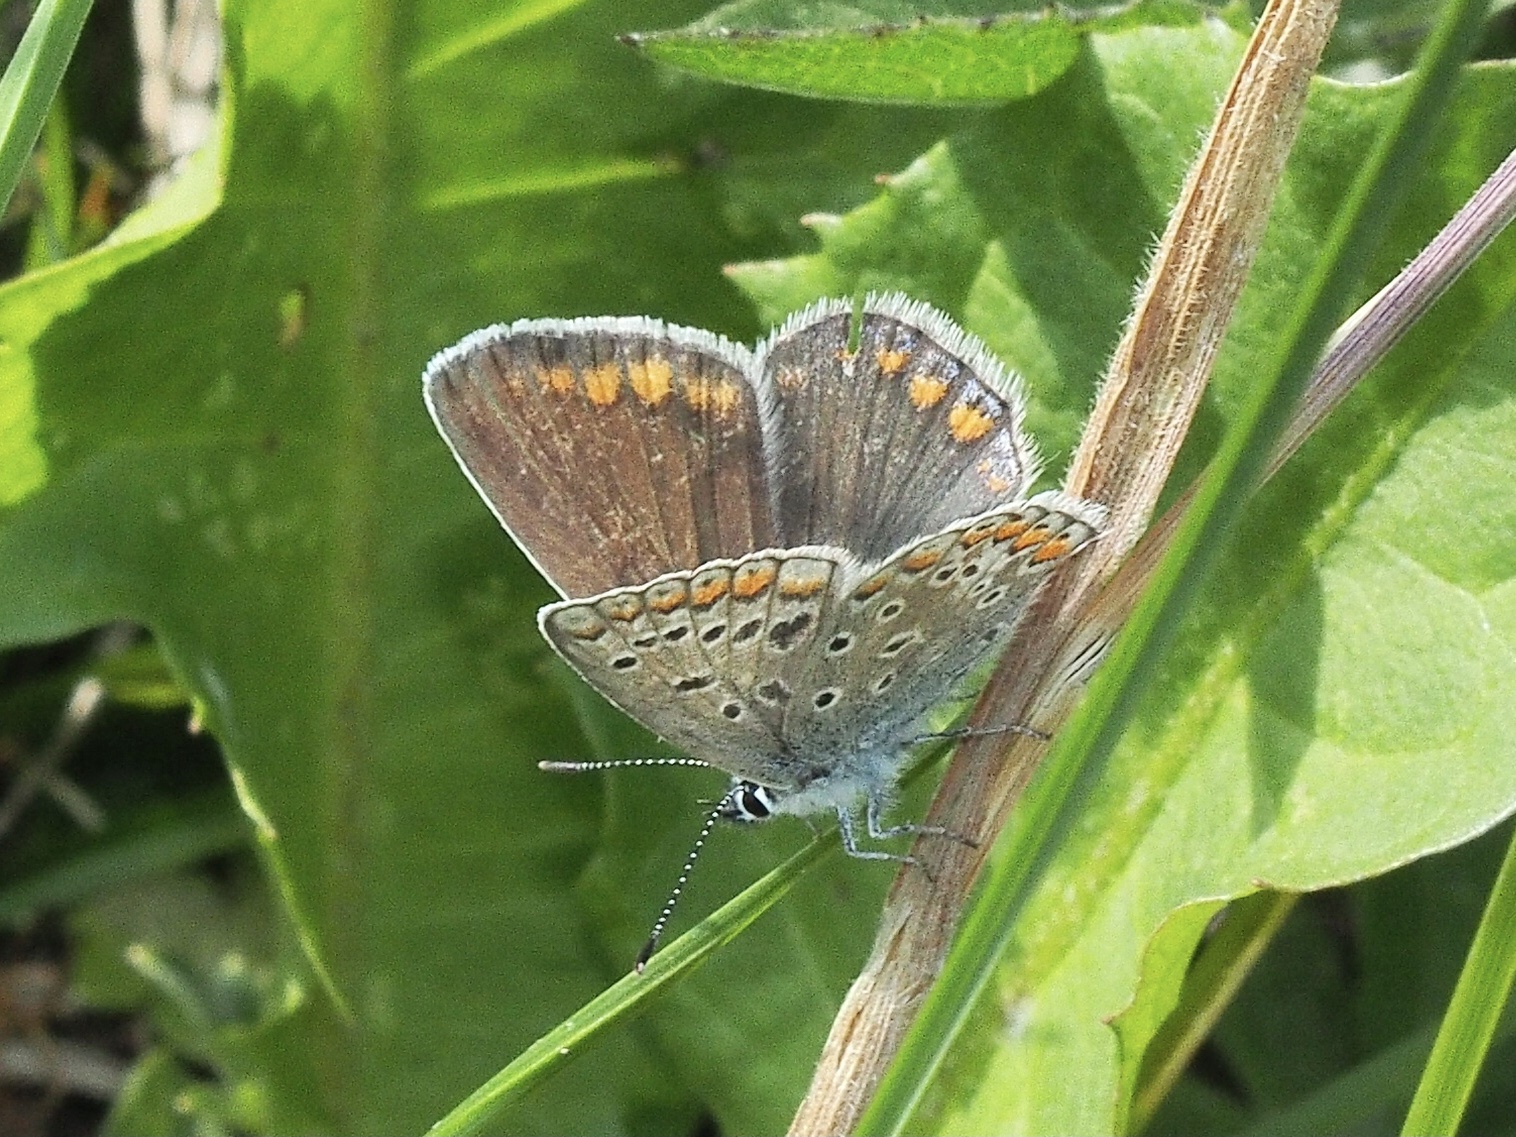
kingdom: Animalia
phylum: Arthropoda
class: Insecta
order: Lepidoptera
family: Lycaenidae
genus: Polyommatus
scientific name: Polyommatus icarus
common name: Common blue
